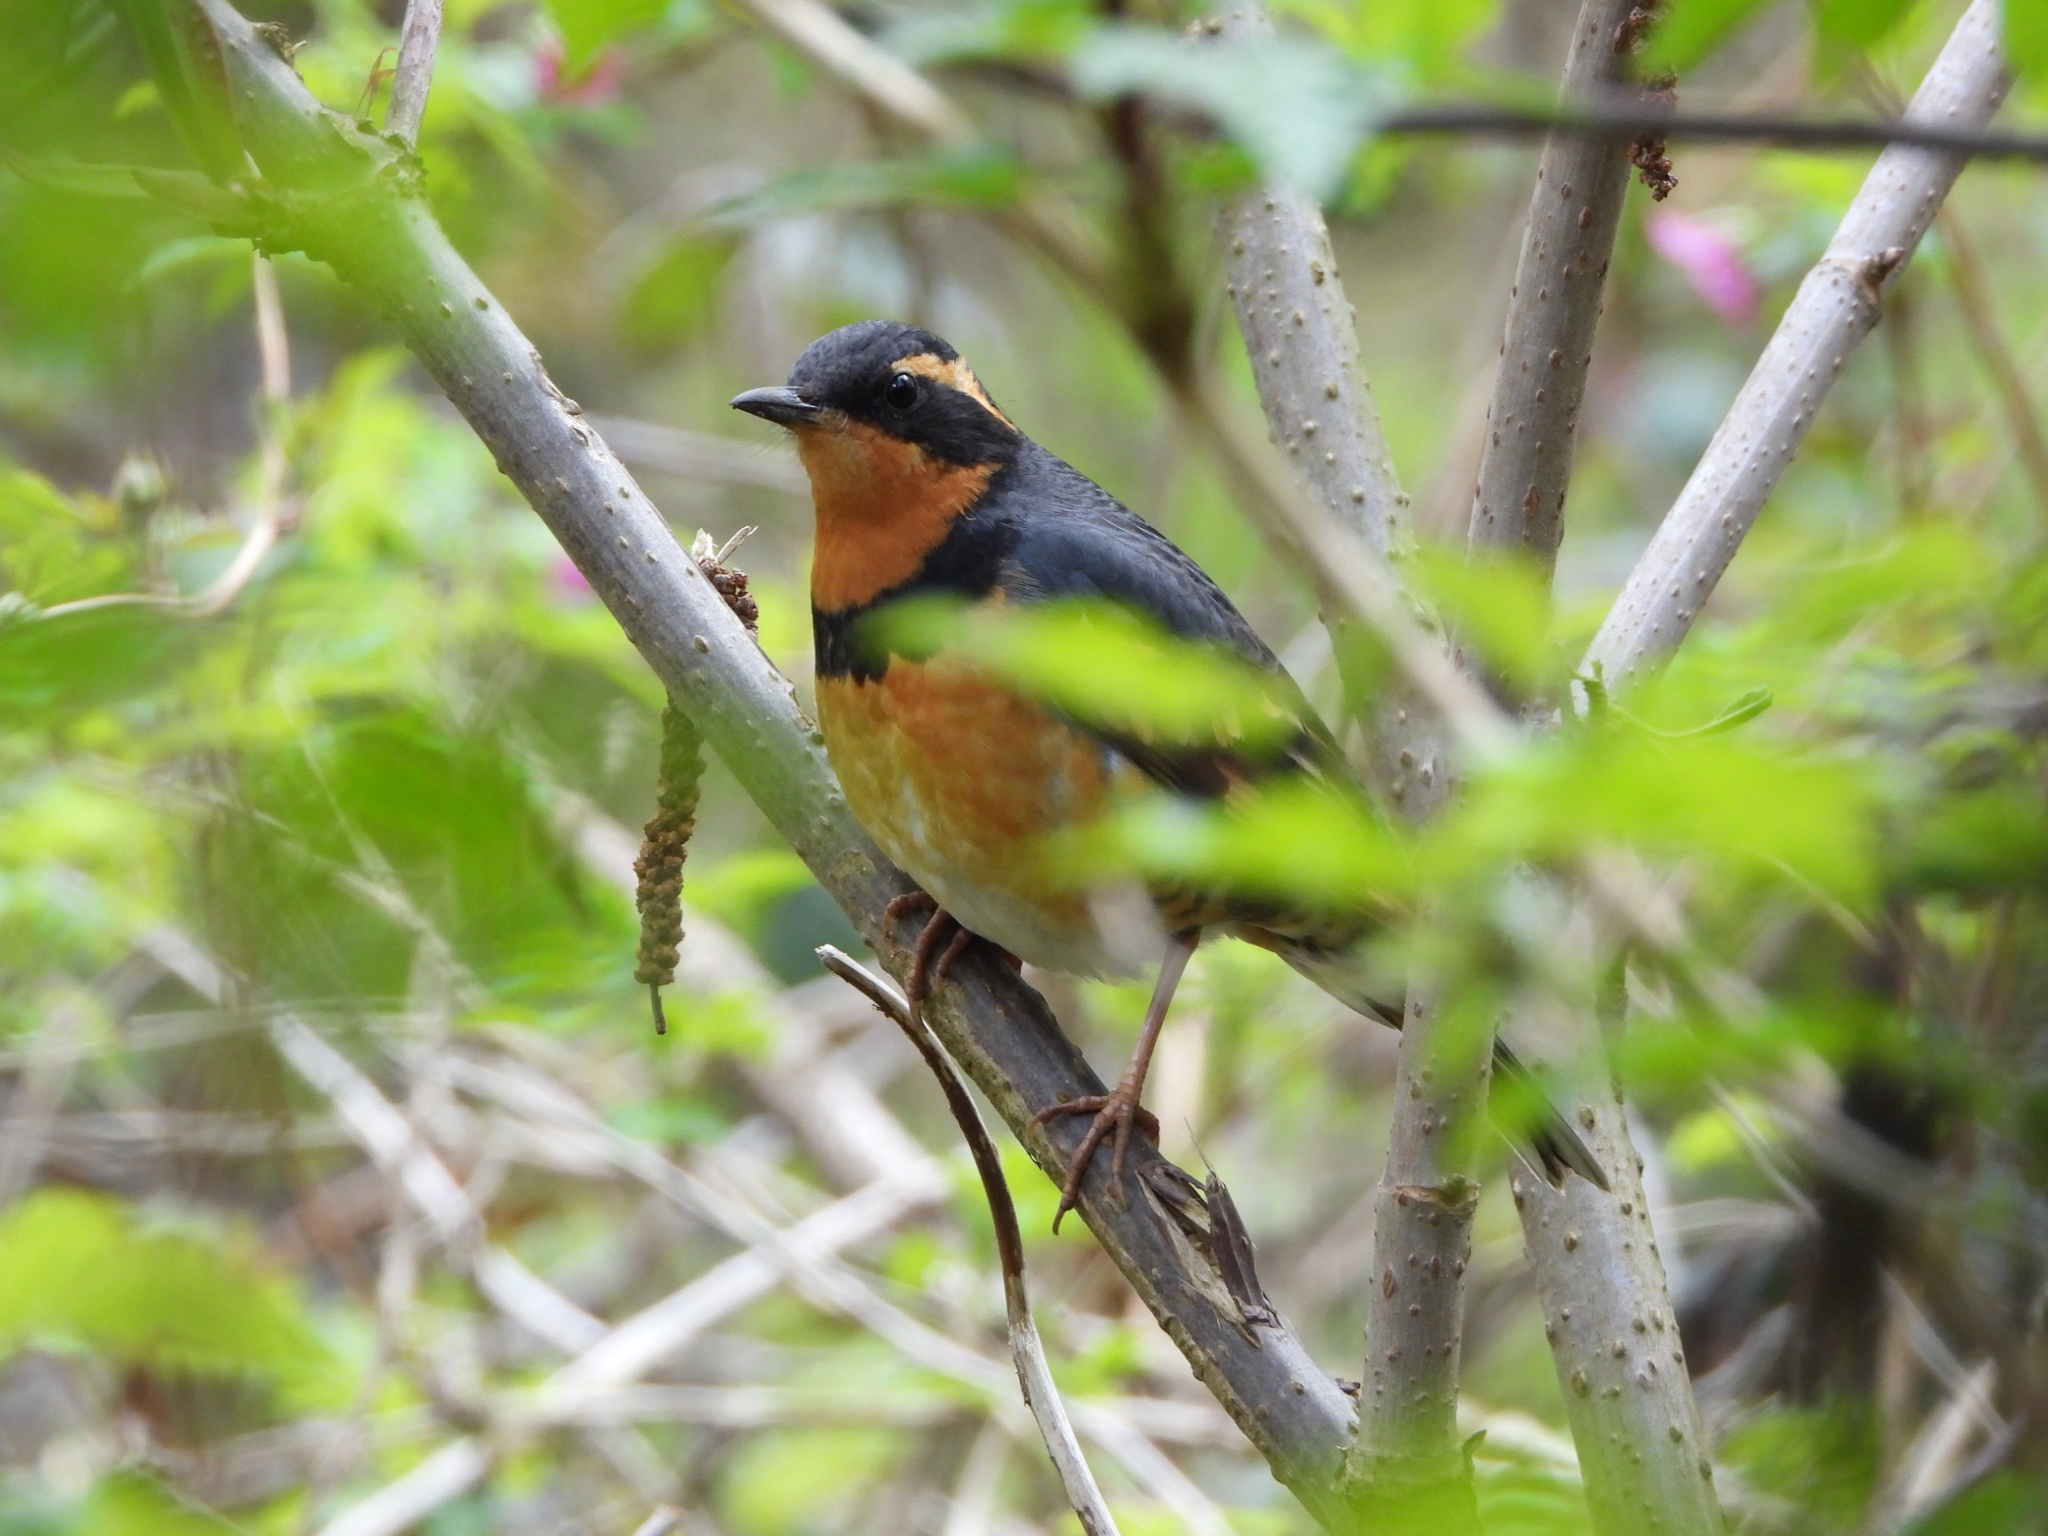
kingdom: Animalia
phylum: Chordata
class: Aves
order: Passeriformes
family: Turdidae
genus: Ixoreus
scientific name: Ixoreus naevius
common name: Varied thrush
